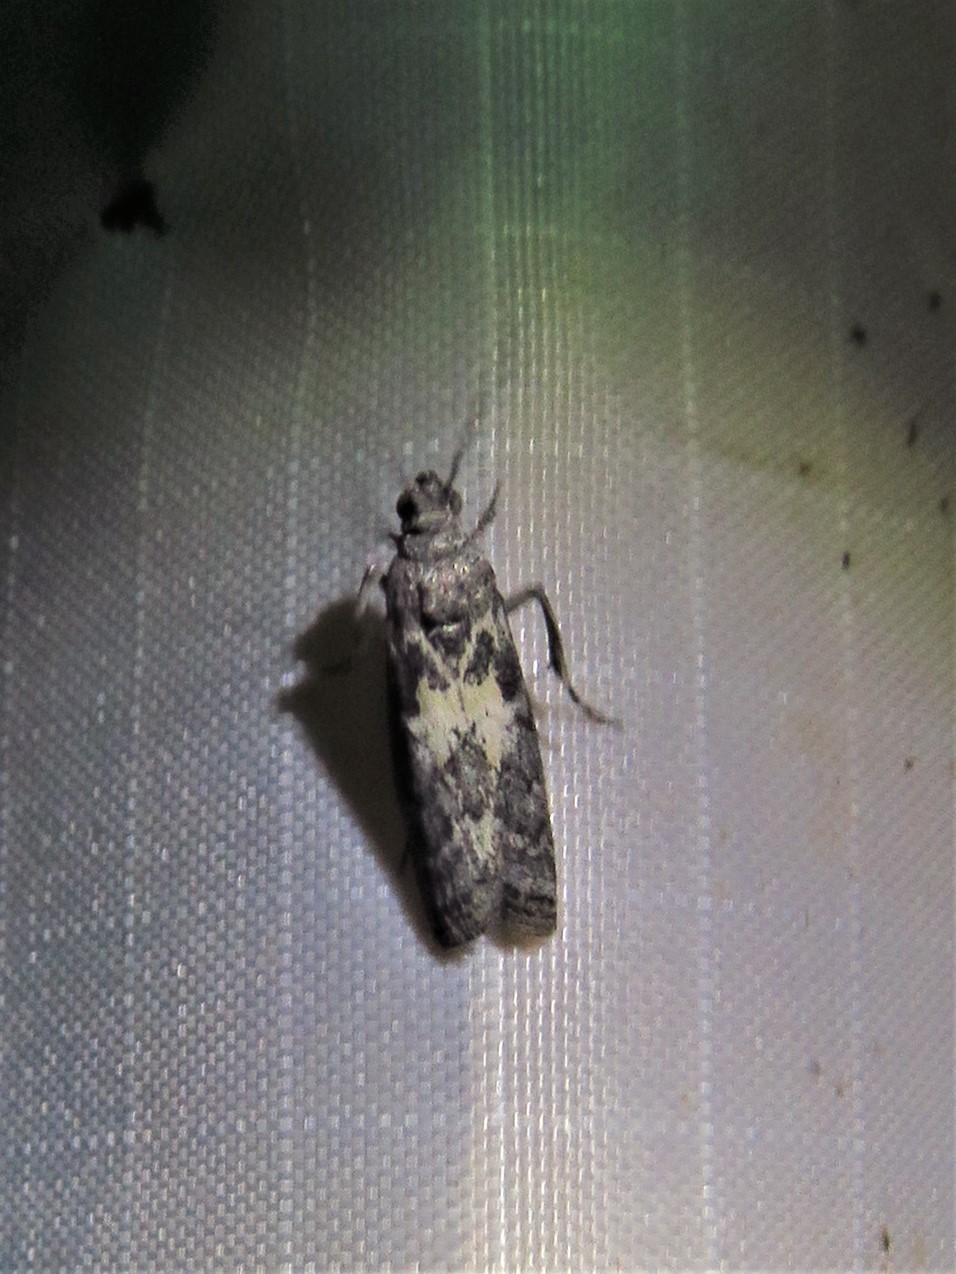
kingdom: Animalia
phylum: Arthropoda
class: Insecta
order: Lepidoptera
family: Pyralidae
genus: Tacoma
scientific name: Tacoma feriella
